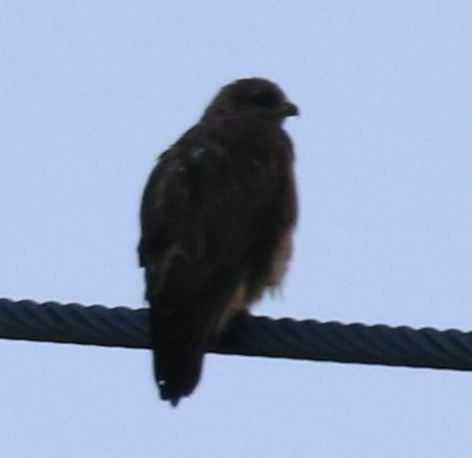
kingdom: Animalia
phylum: Chordata
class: Aves
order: Accipitriformes
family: Accipitridae
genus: Buteo
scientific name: Buteo buteo
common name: Common buzzard
